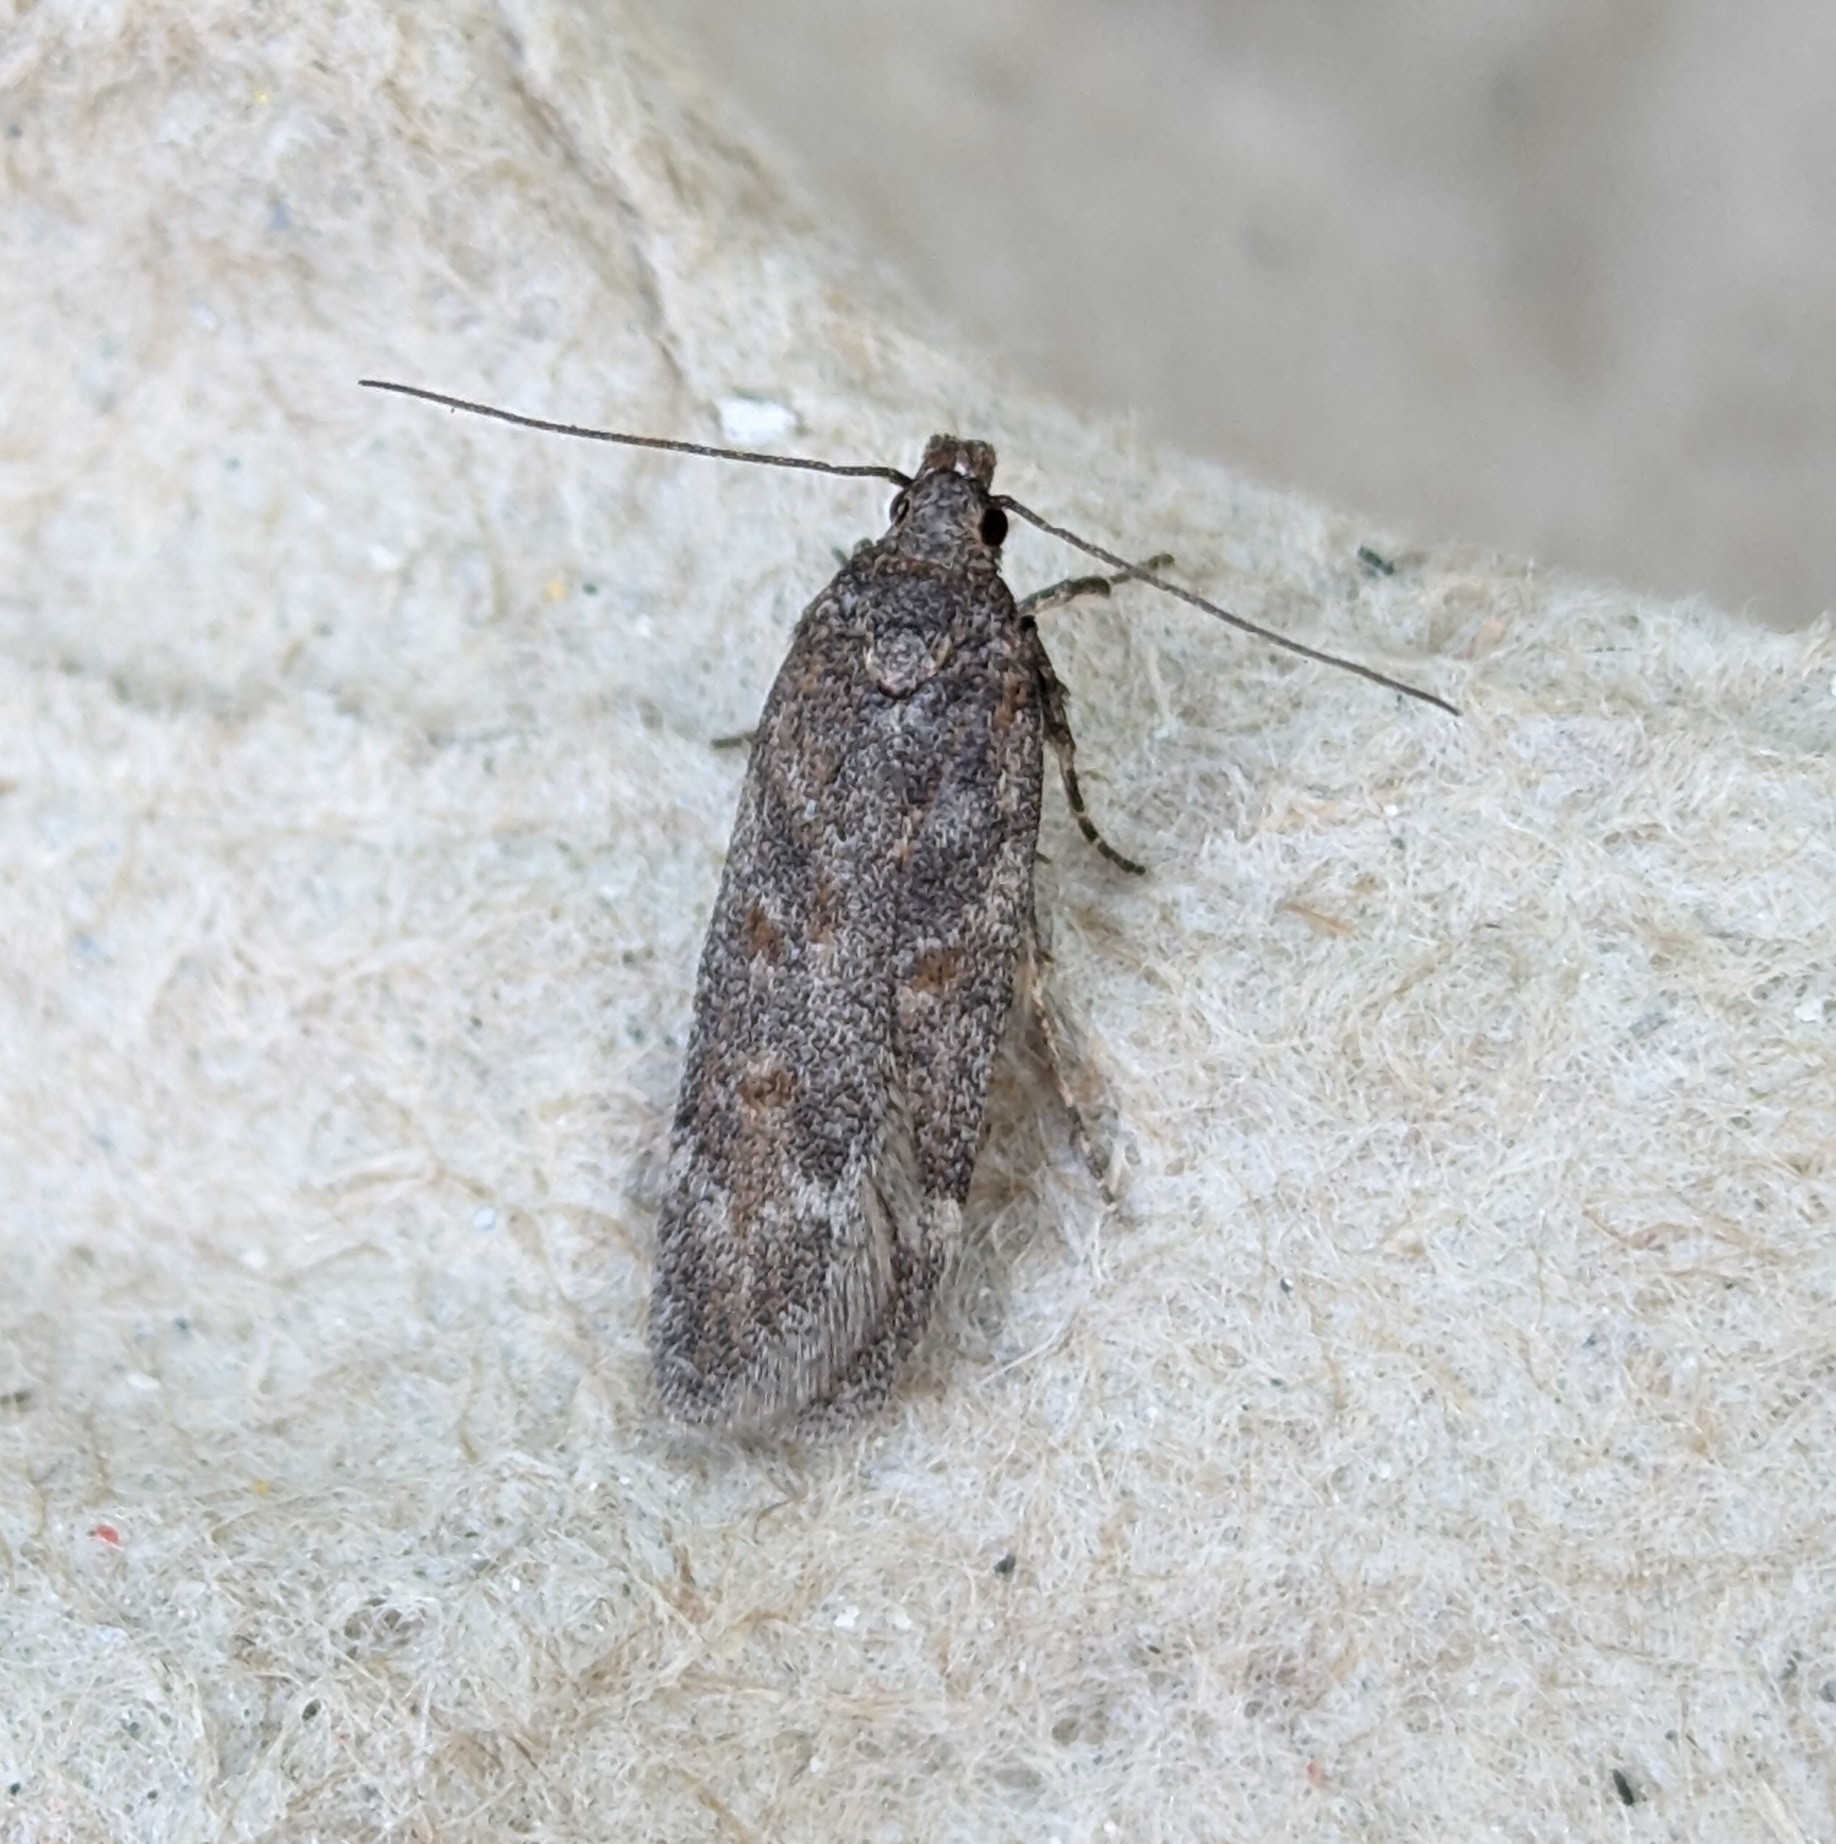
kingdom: Animalia
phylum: Arthropoda
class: Insecta
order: Lepidoptera
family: Gelechiidae
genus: Filatima
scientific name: Filatima abactella
